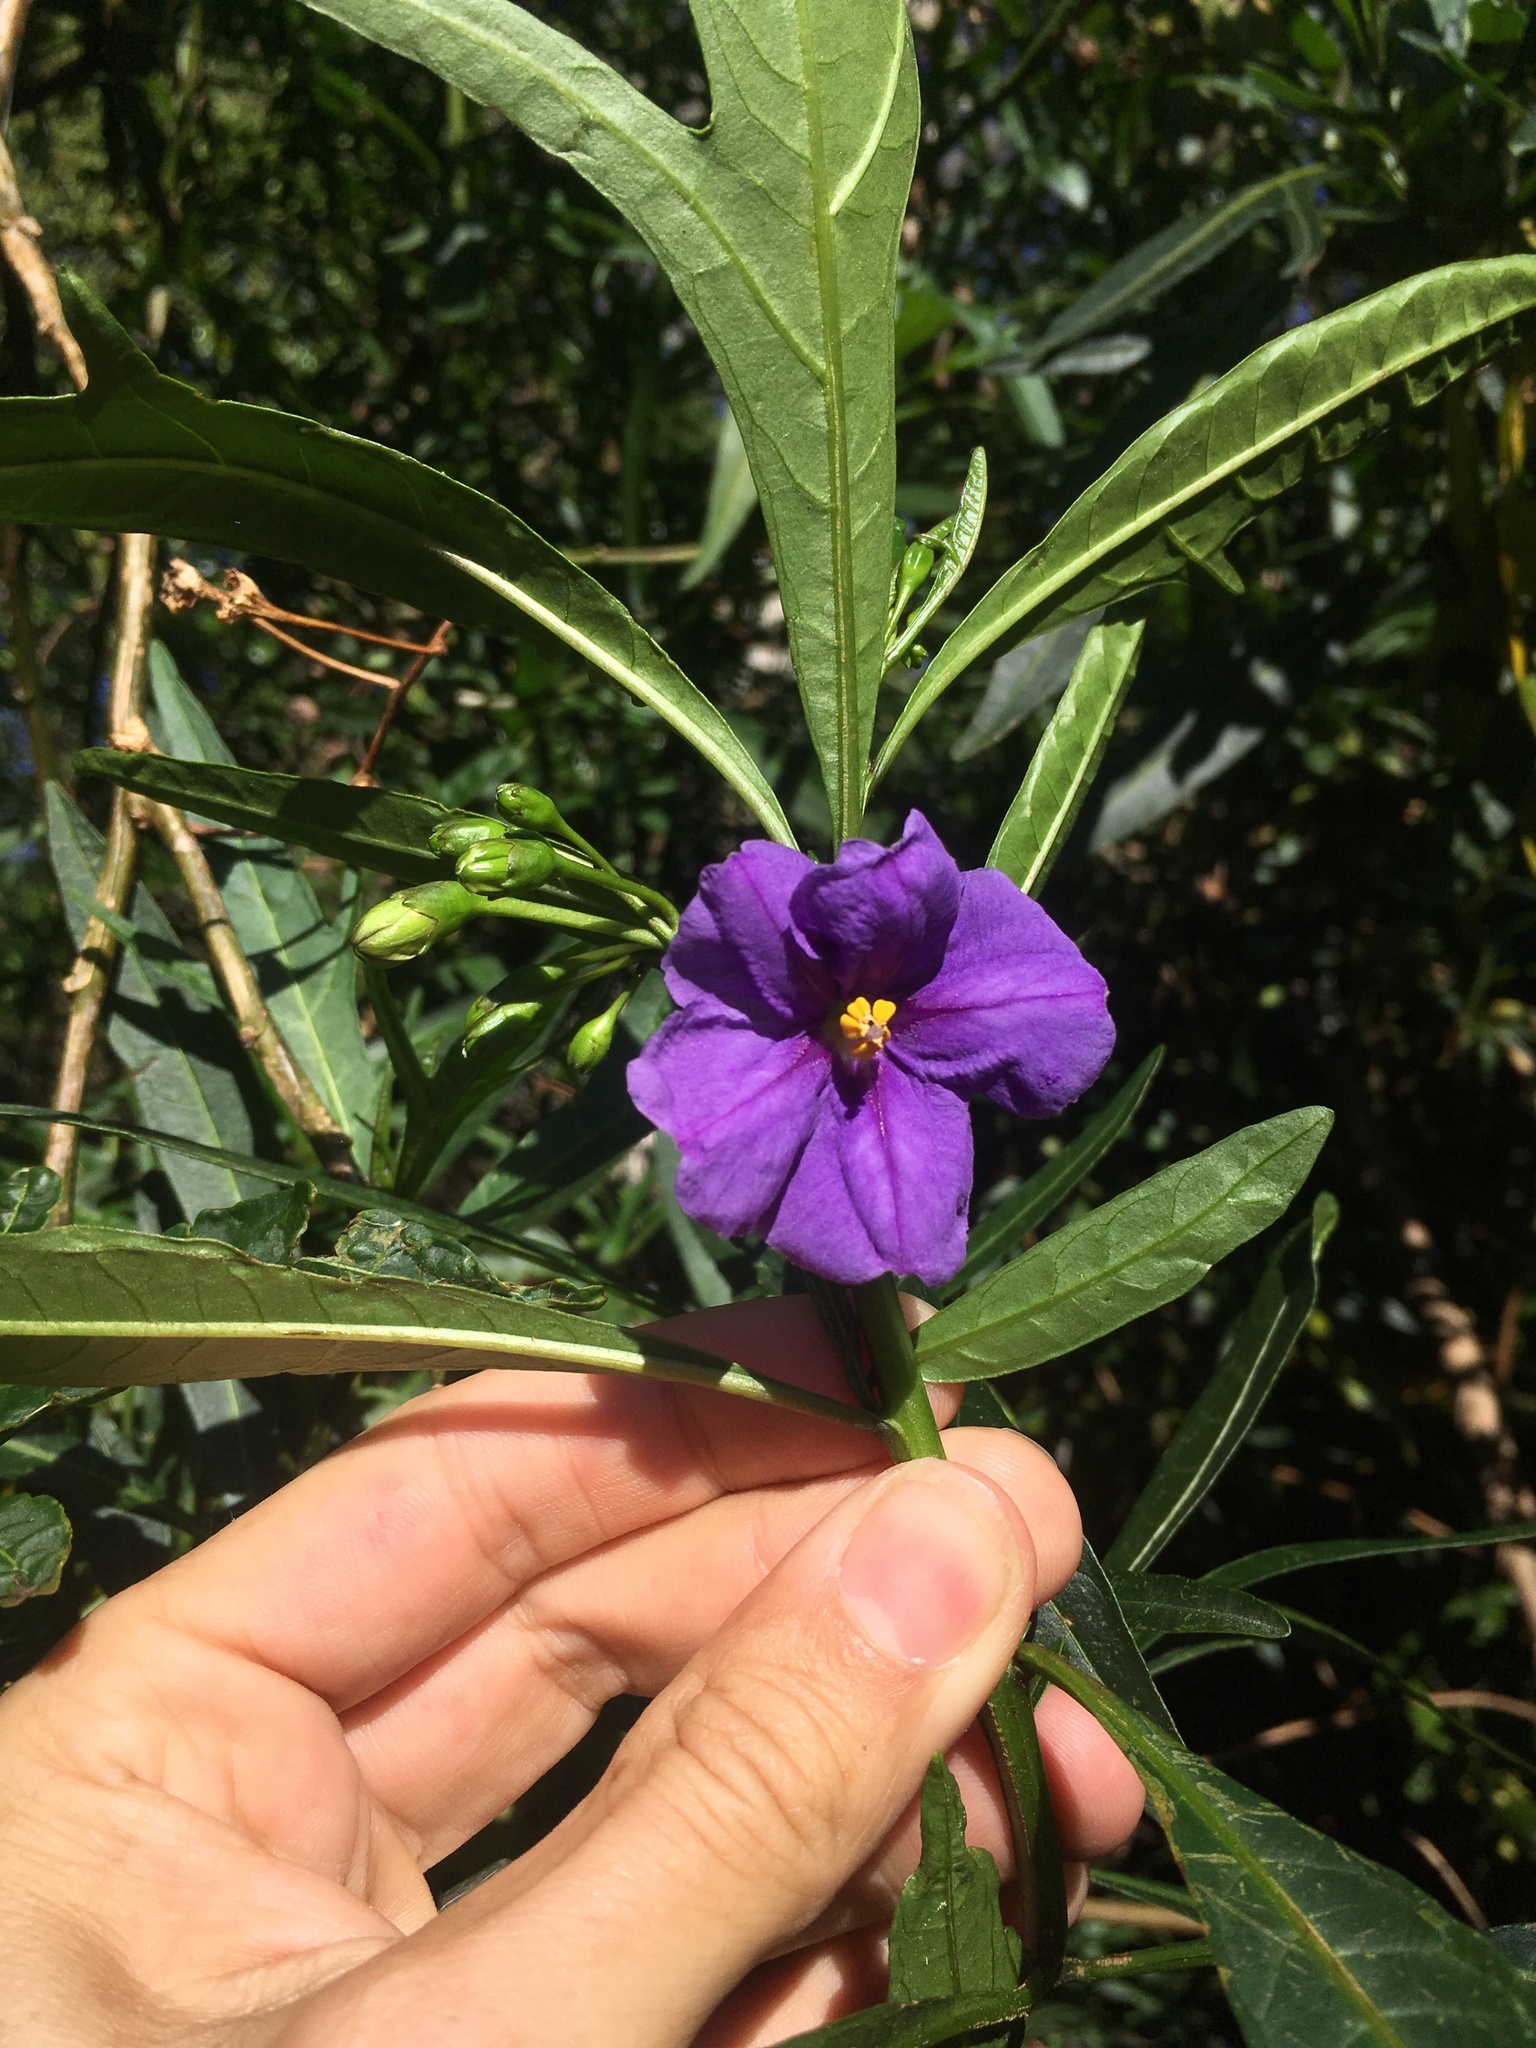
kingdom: Plantae
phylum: Tracheophyta
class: Magnoliopsida
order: Solanales
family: Solanaceae
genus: Solanum
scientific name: Solanum laciniatum
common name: Kangaroo-apple
